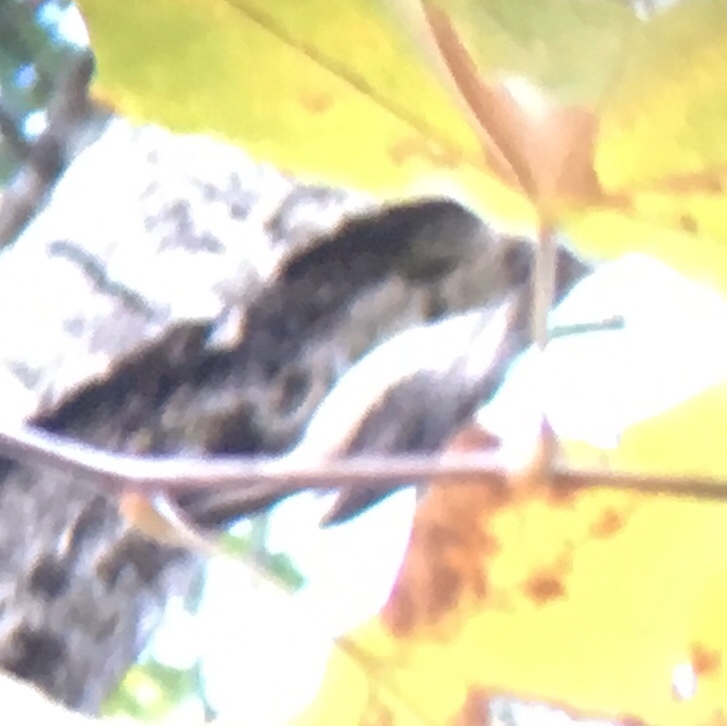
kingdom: Animalia
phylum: Chordata
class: Aves
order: Passeriformes
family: Certhiidae
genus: Certhia
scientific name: Certhia americana
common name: Brown creeper
